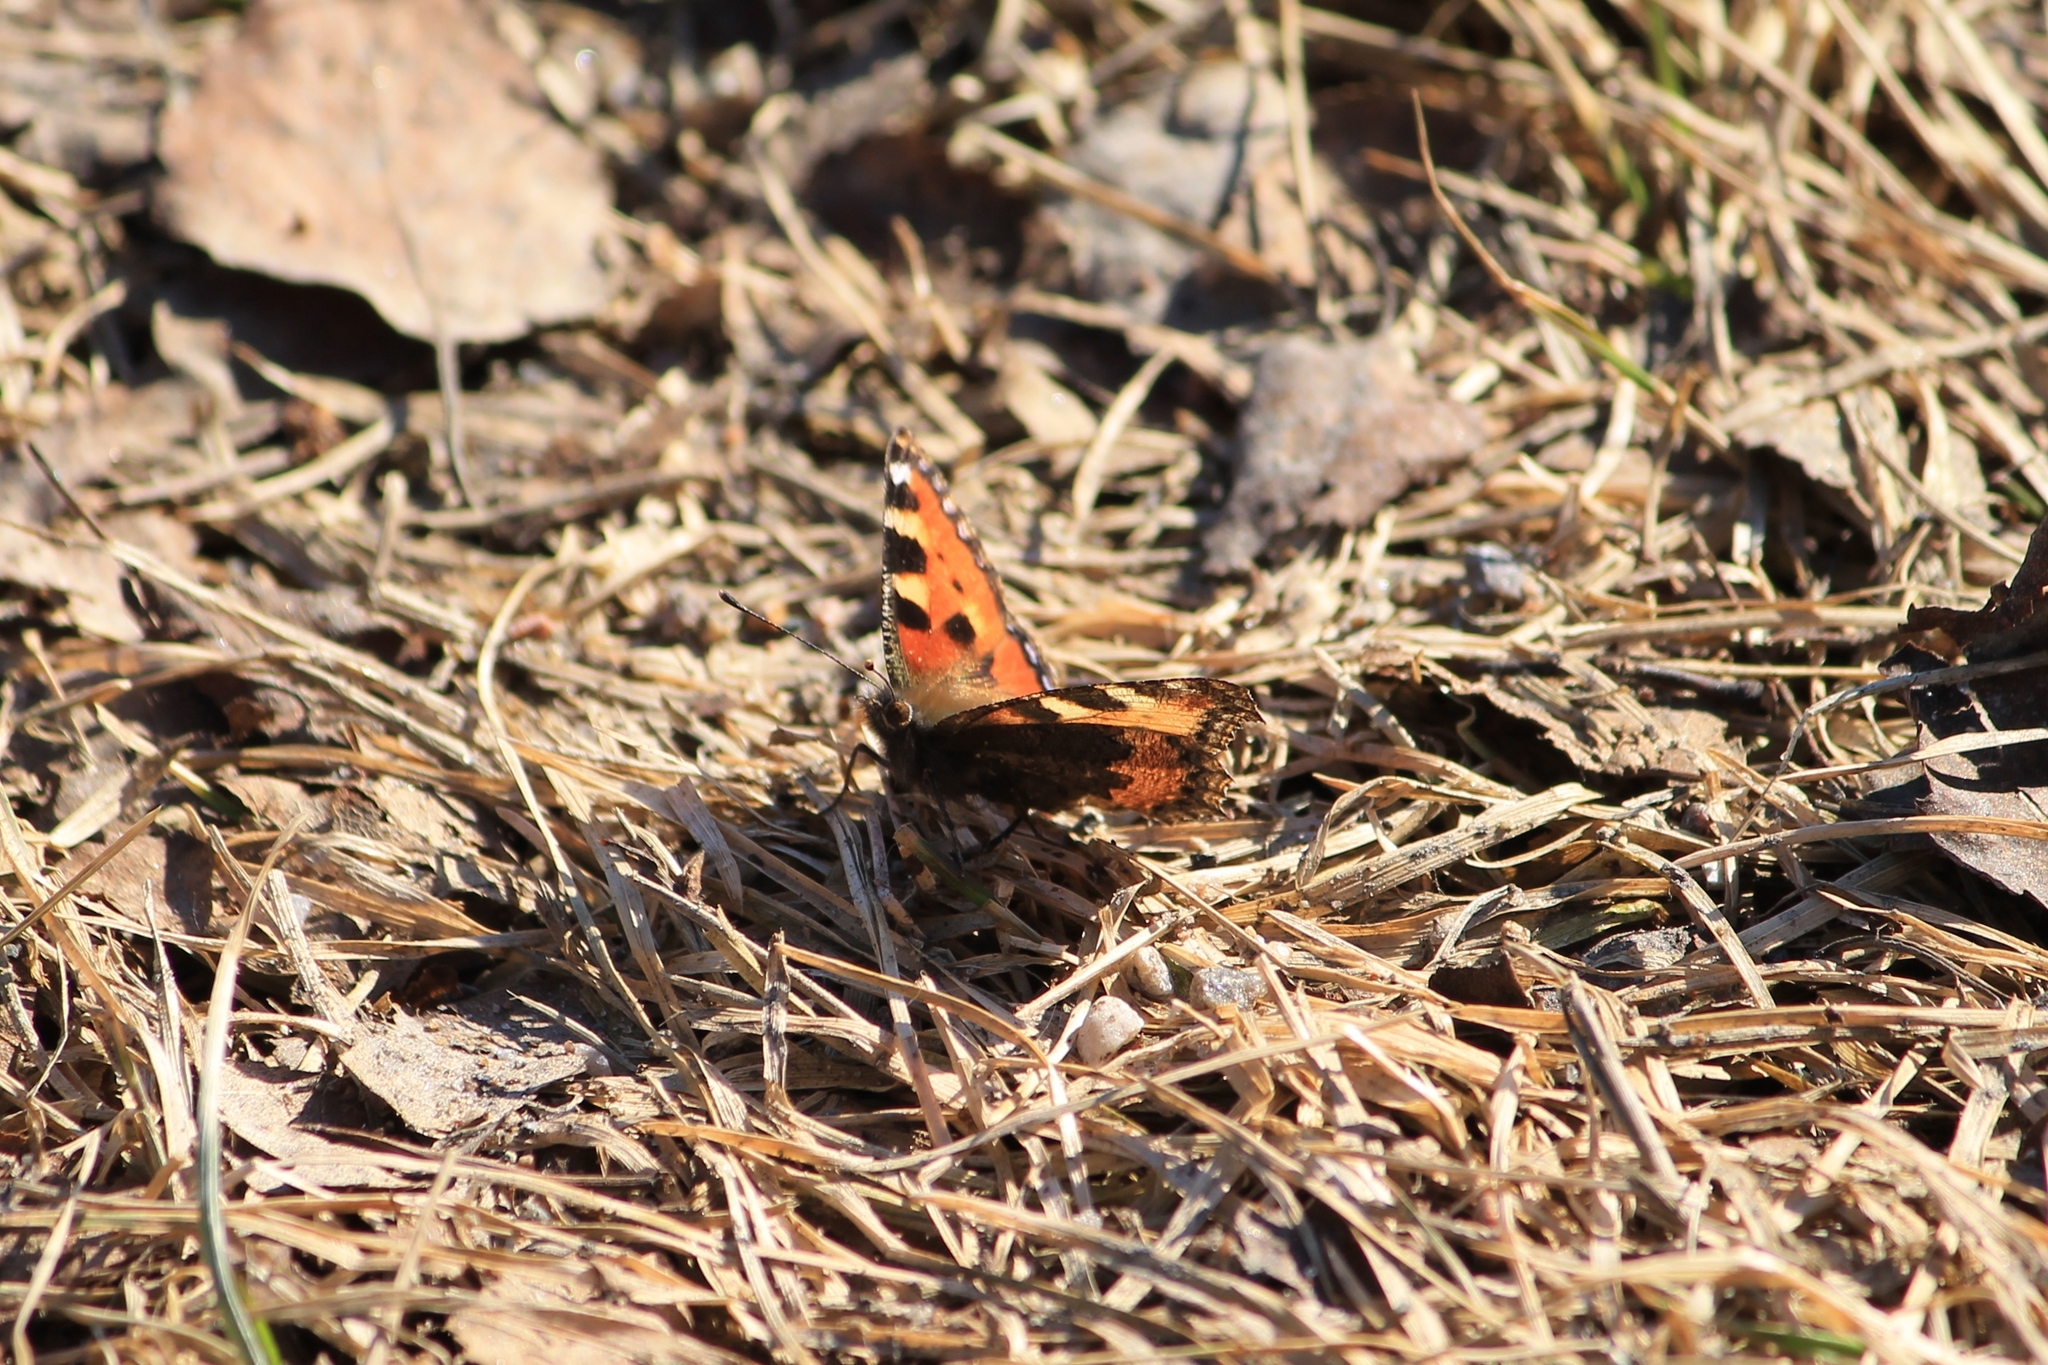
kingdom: Animalia
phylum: Arthropoda
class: Insecta
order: Lepidoptera
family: Nymphalidae
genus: Aglais
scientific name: Aglais urticae
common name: Small tortoiseshell
